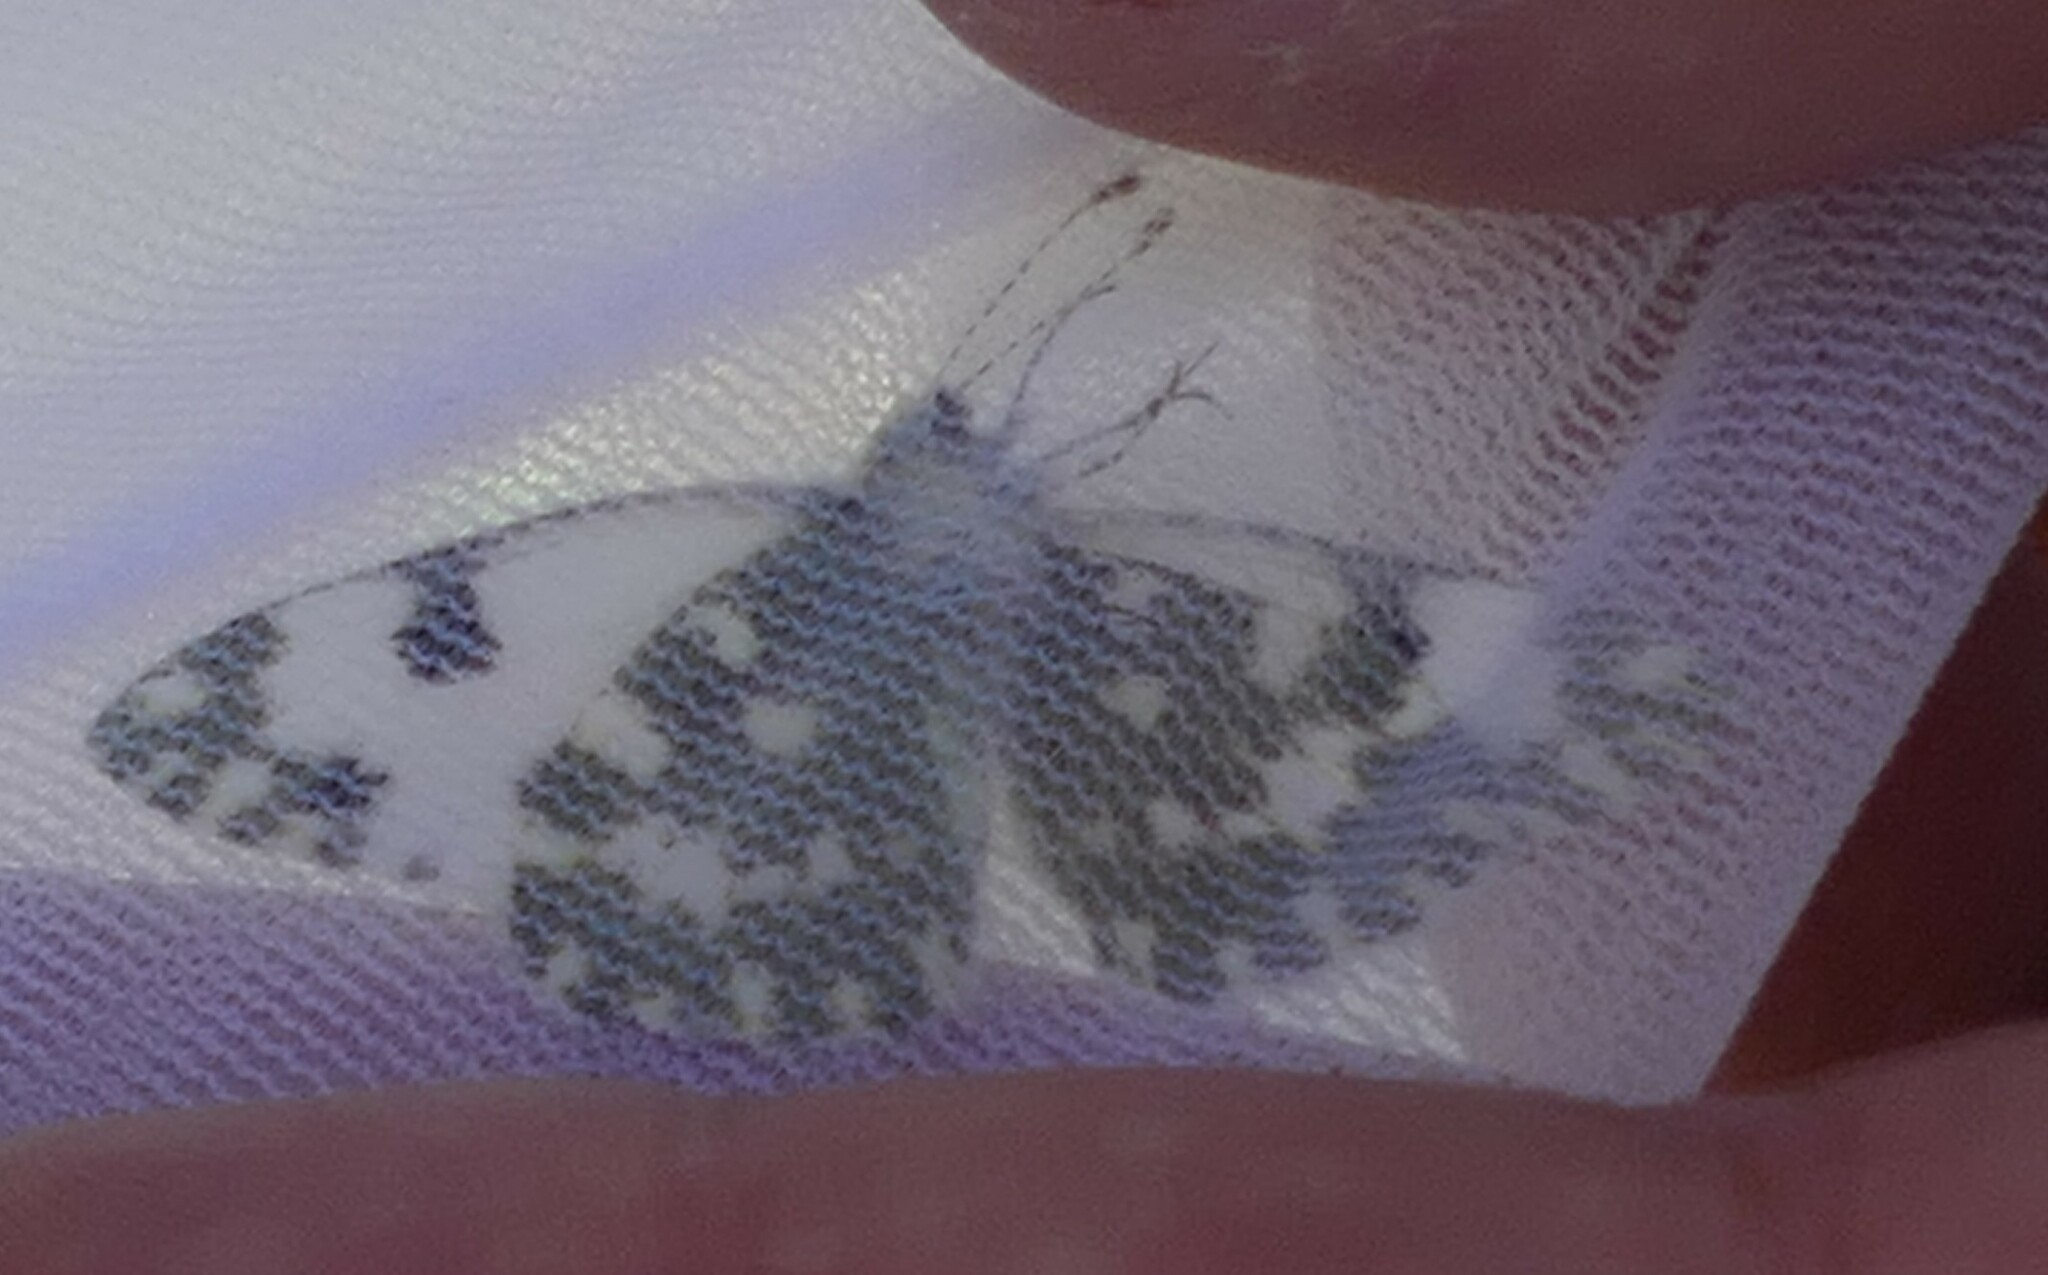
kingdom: Animalia
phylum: Arthropoda
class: Insecta
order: Lepidoptera
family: Pieridae
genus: Pontia
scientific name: Pontia daplidice
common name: Bath white
